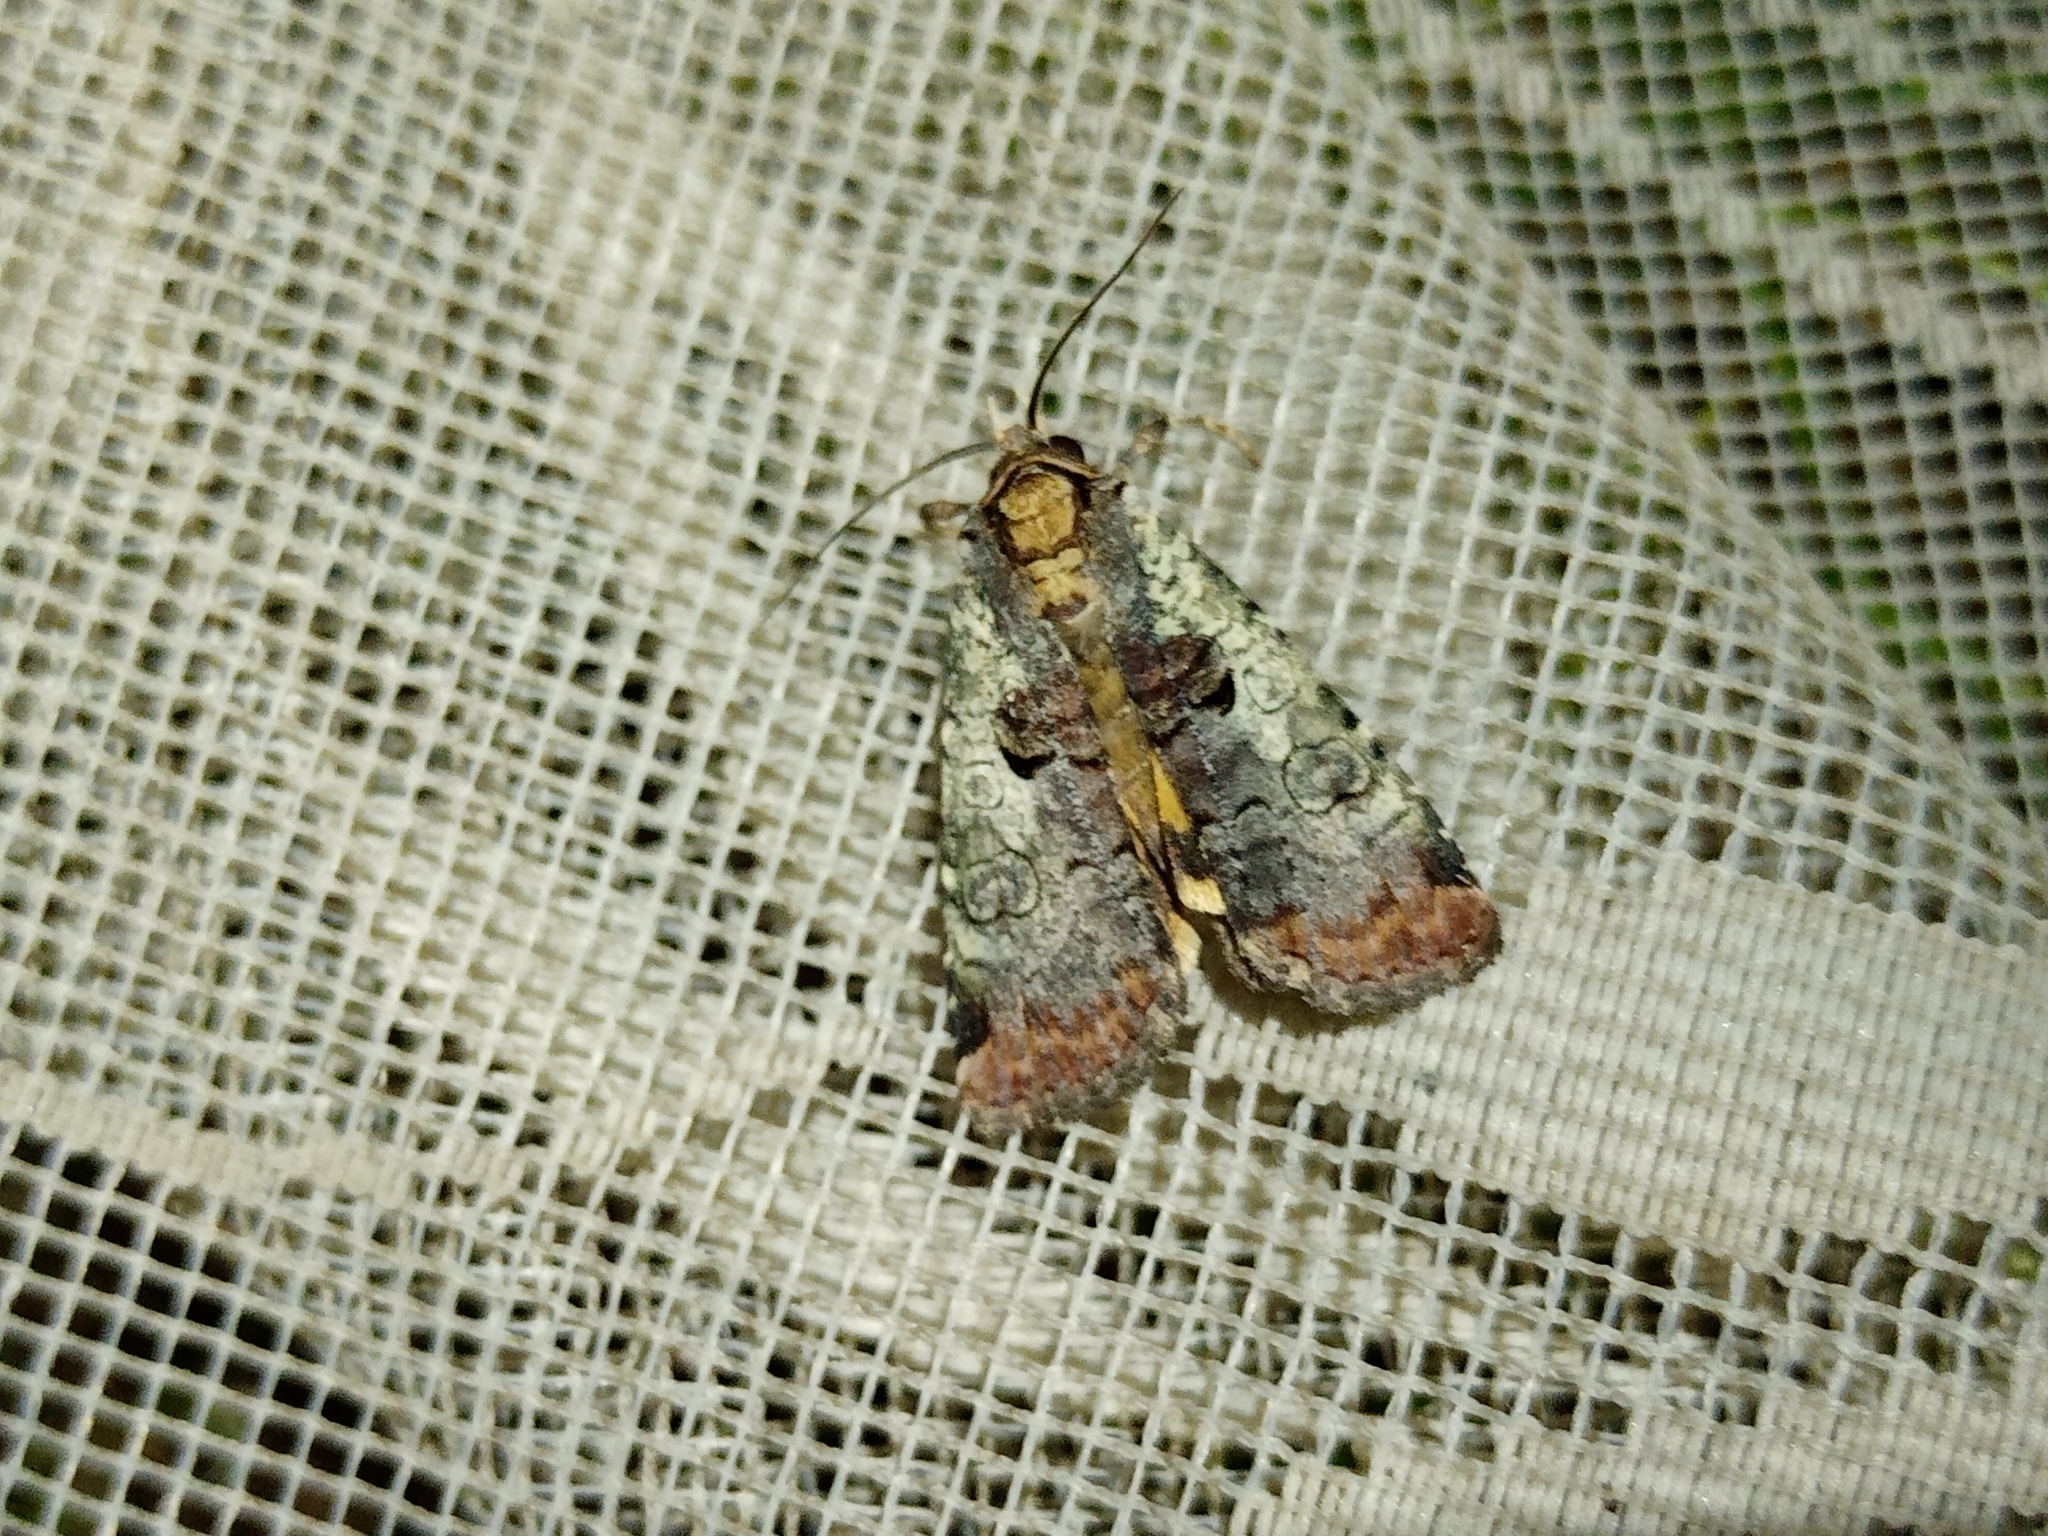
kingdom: Animalia
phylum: Arthropoda
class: Insecta
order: Lepidoptera
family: Noctuidae
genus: Epilecta
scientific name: Epilecta linogrisea
